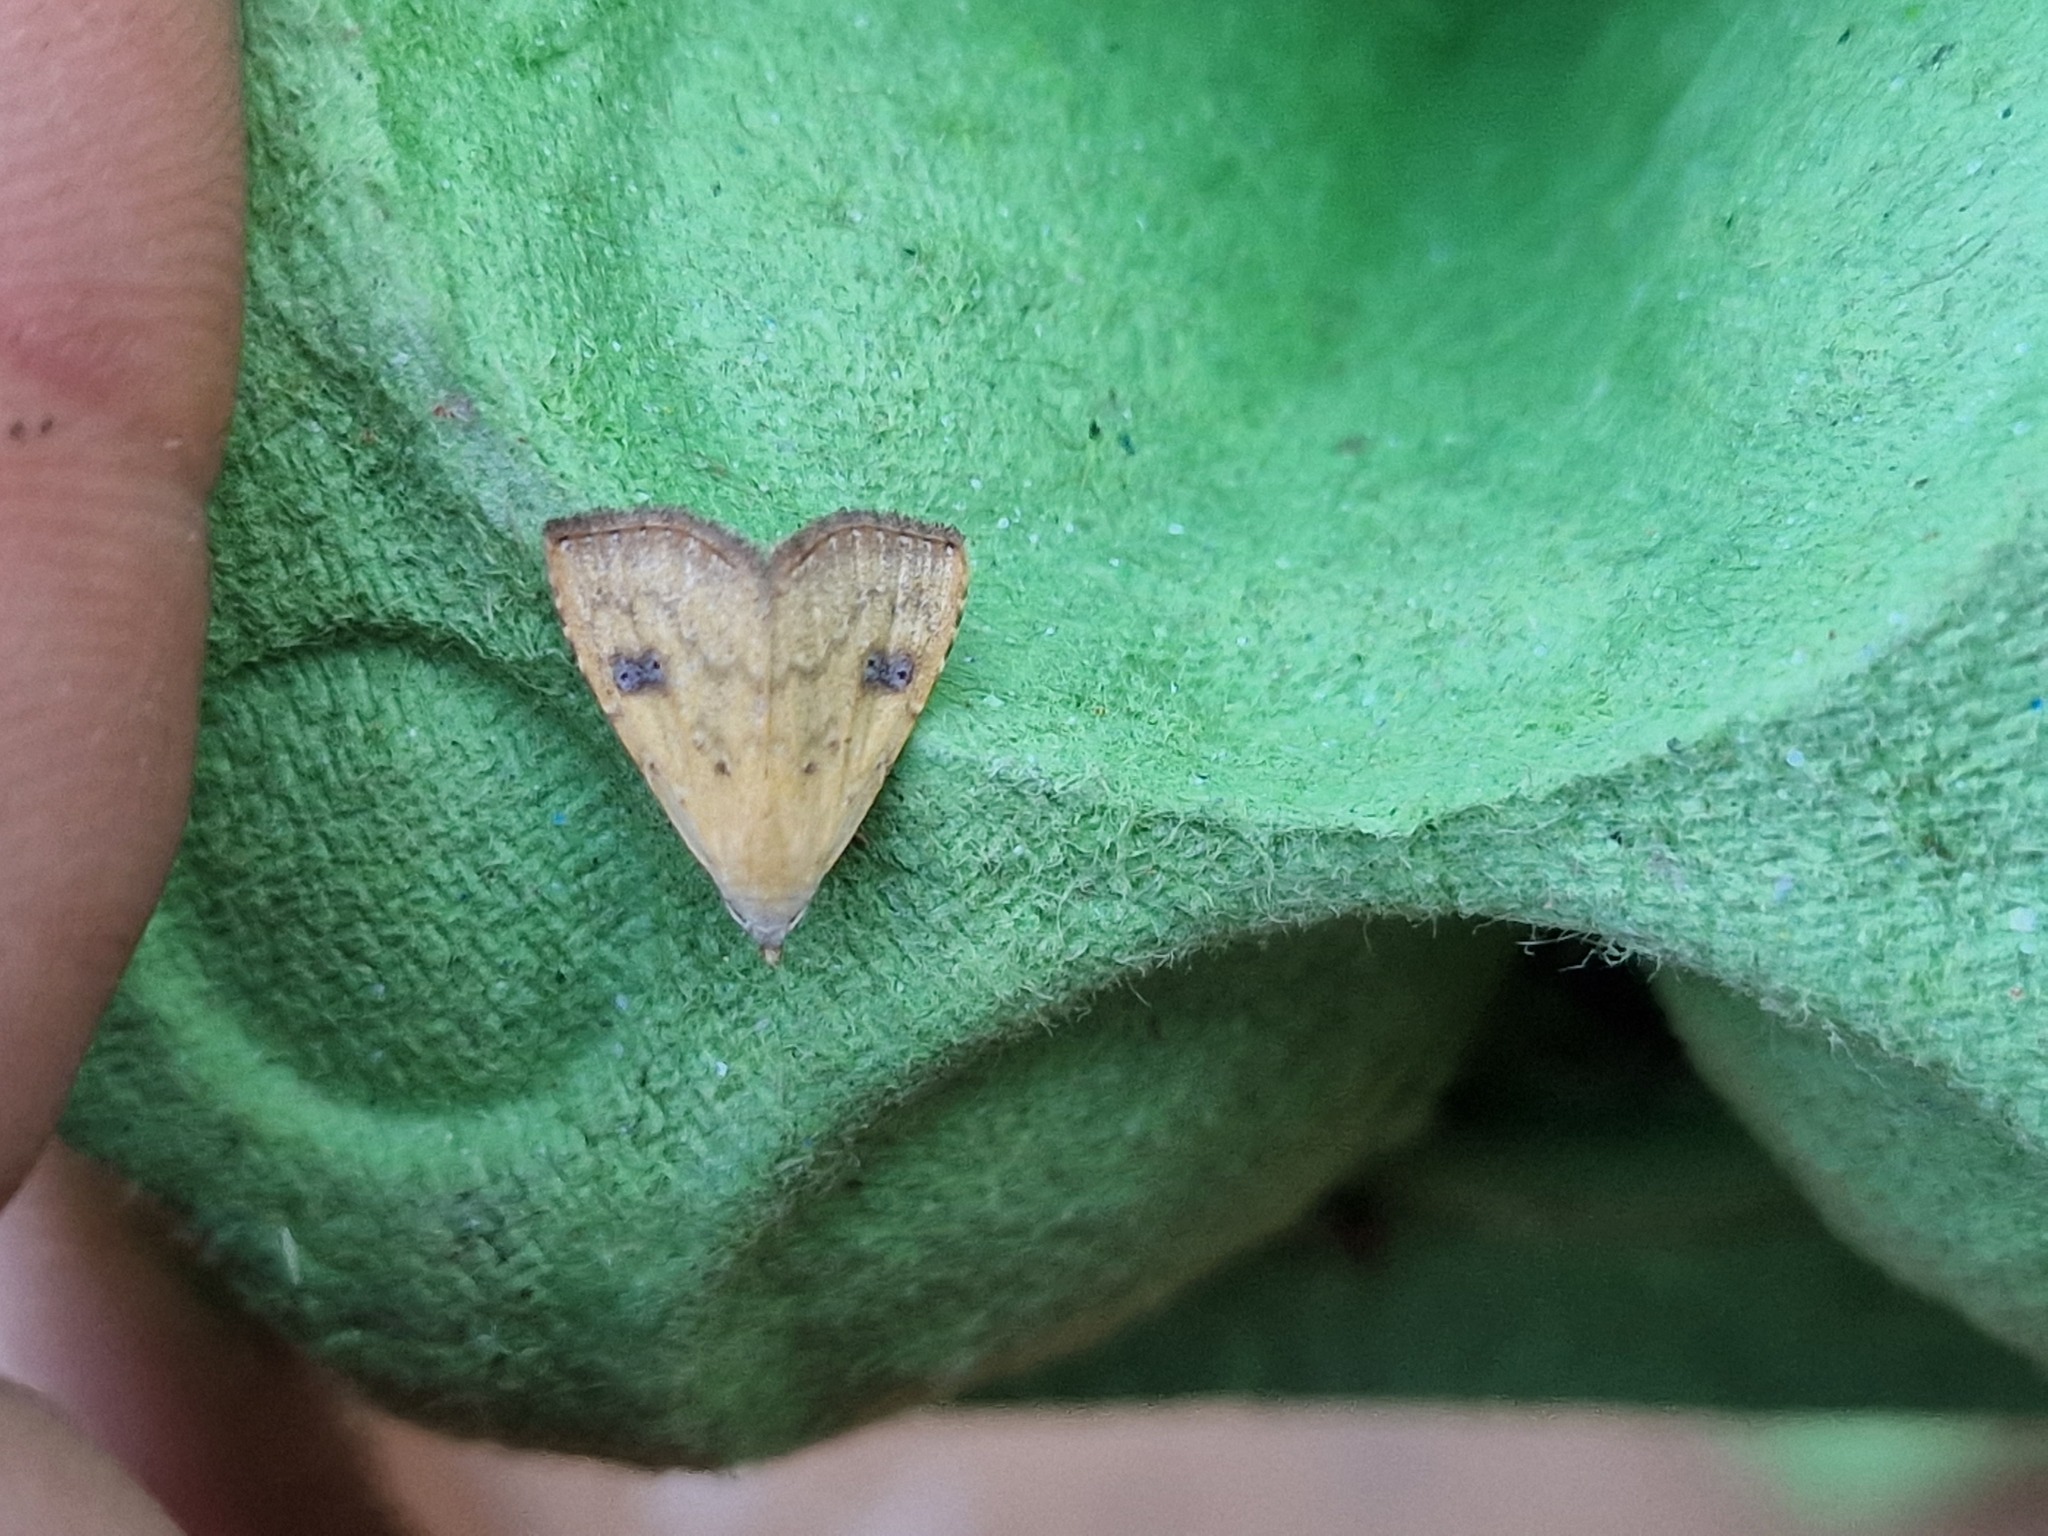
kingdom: Animalia
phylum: Arthropoda
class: Insecta
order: Lepidoptera
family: Erebidae
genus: Rivula
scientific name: Rivula sericealis
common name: Straw dot
